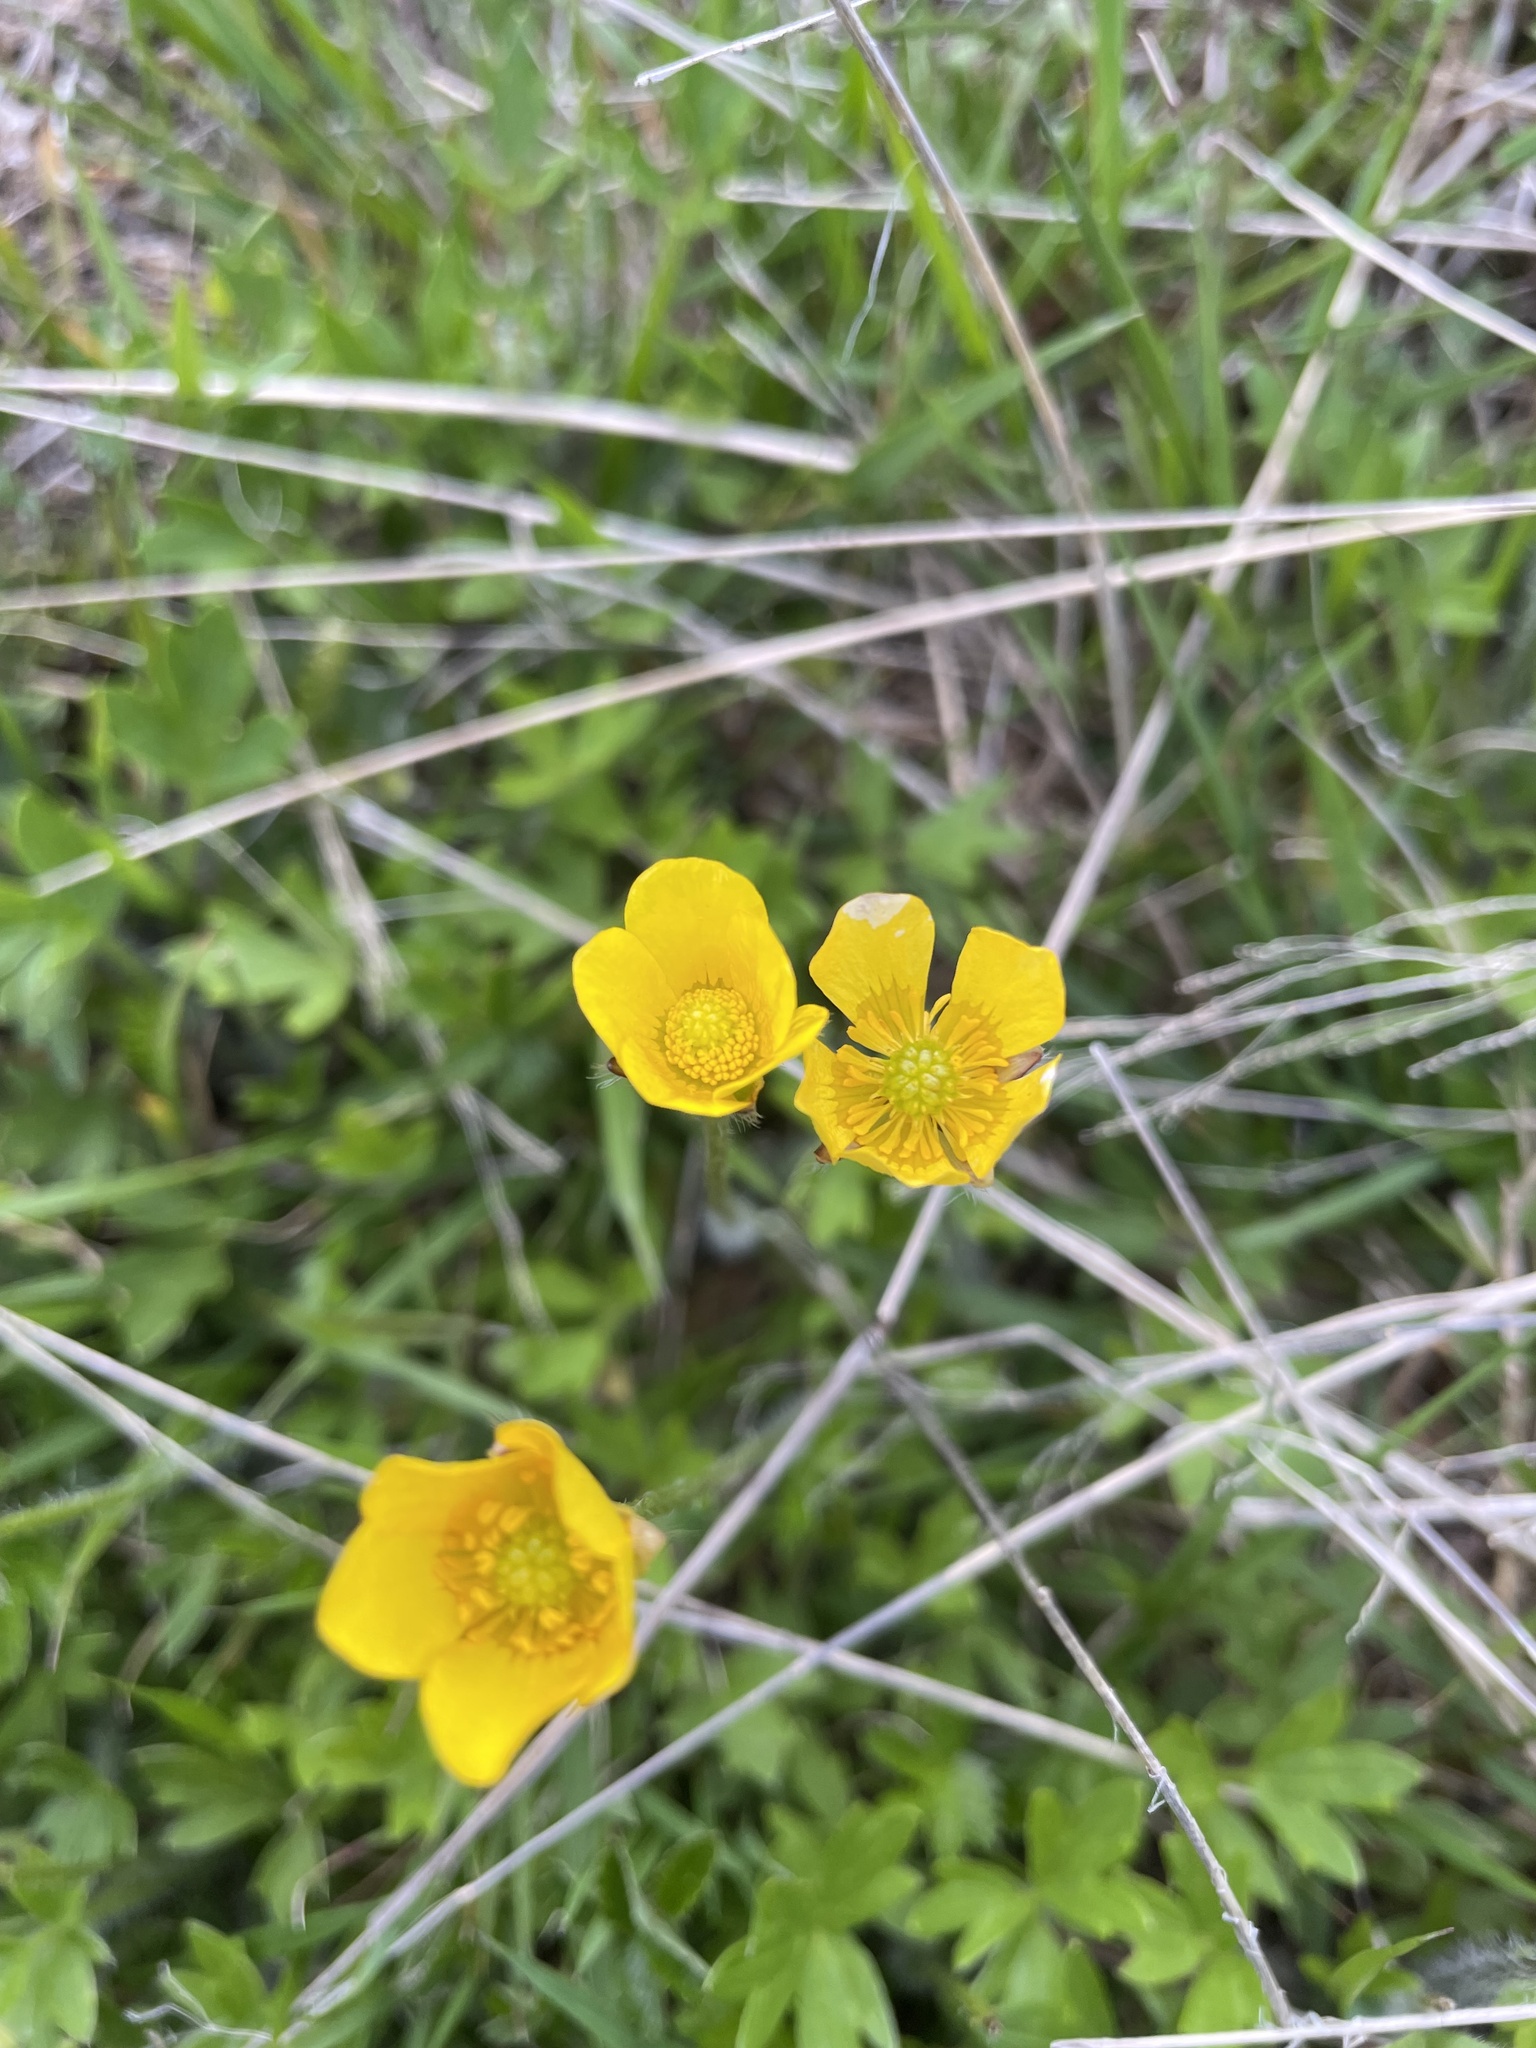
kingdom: Plantae
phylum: Tracheophyta
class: Magnoliopsida
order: Ranunculales
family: Ranunculaceae
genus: Ranunculus
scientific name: Ranunculus lappaceus
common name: Australian buttercup
